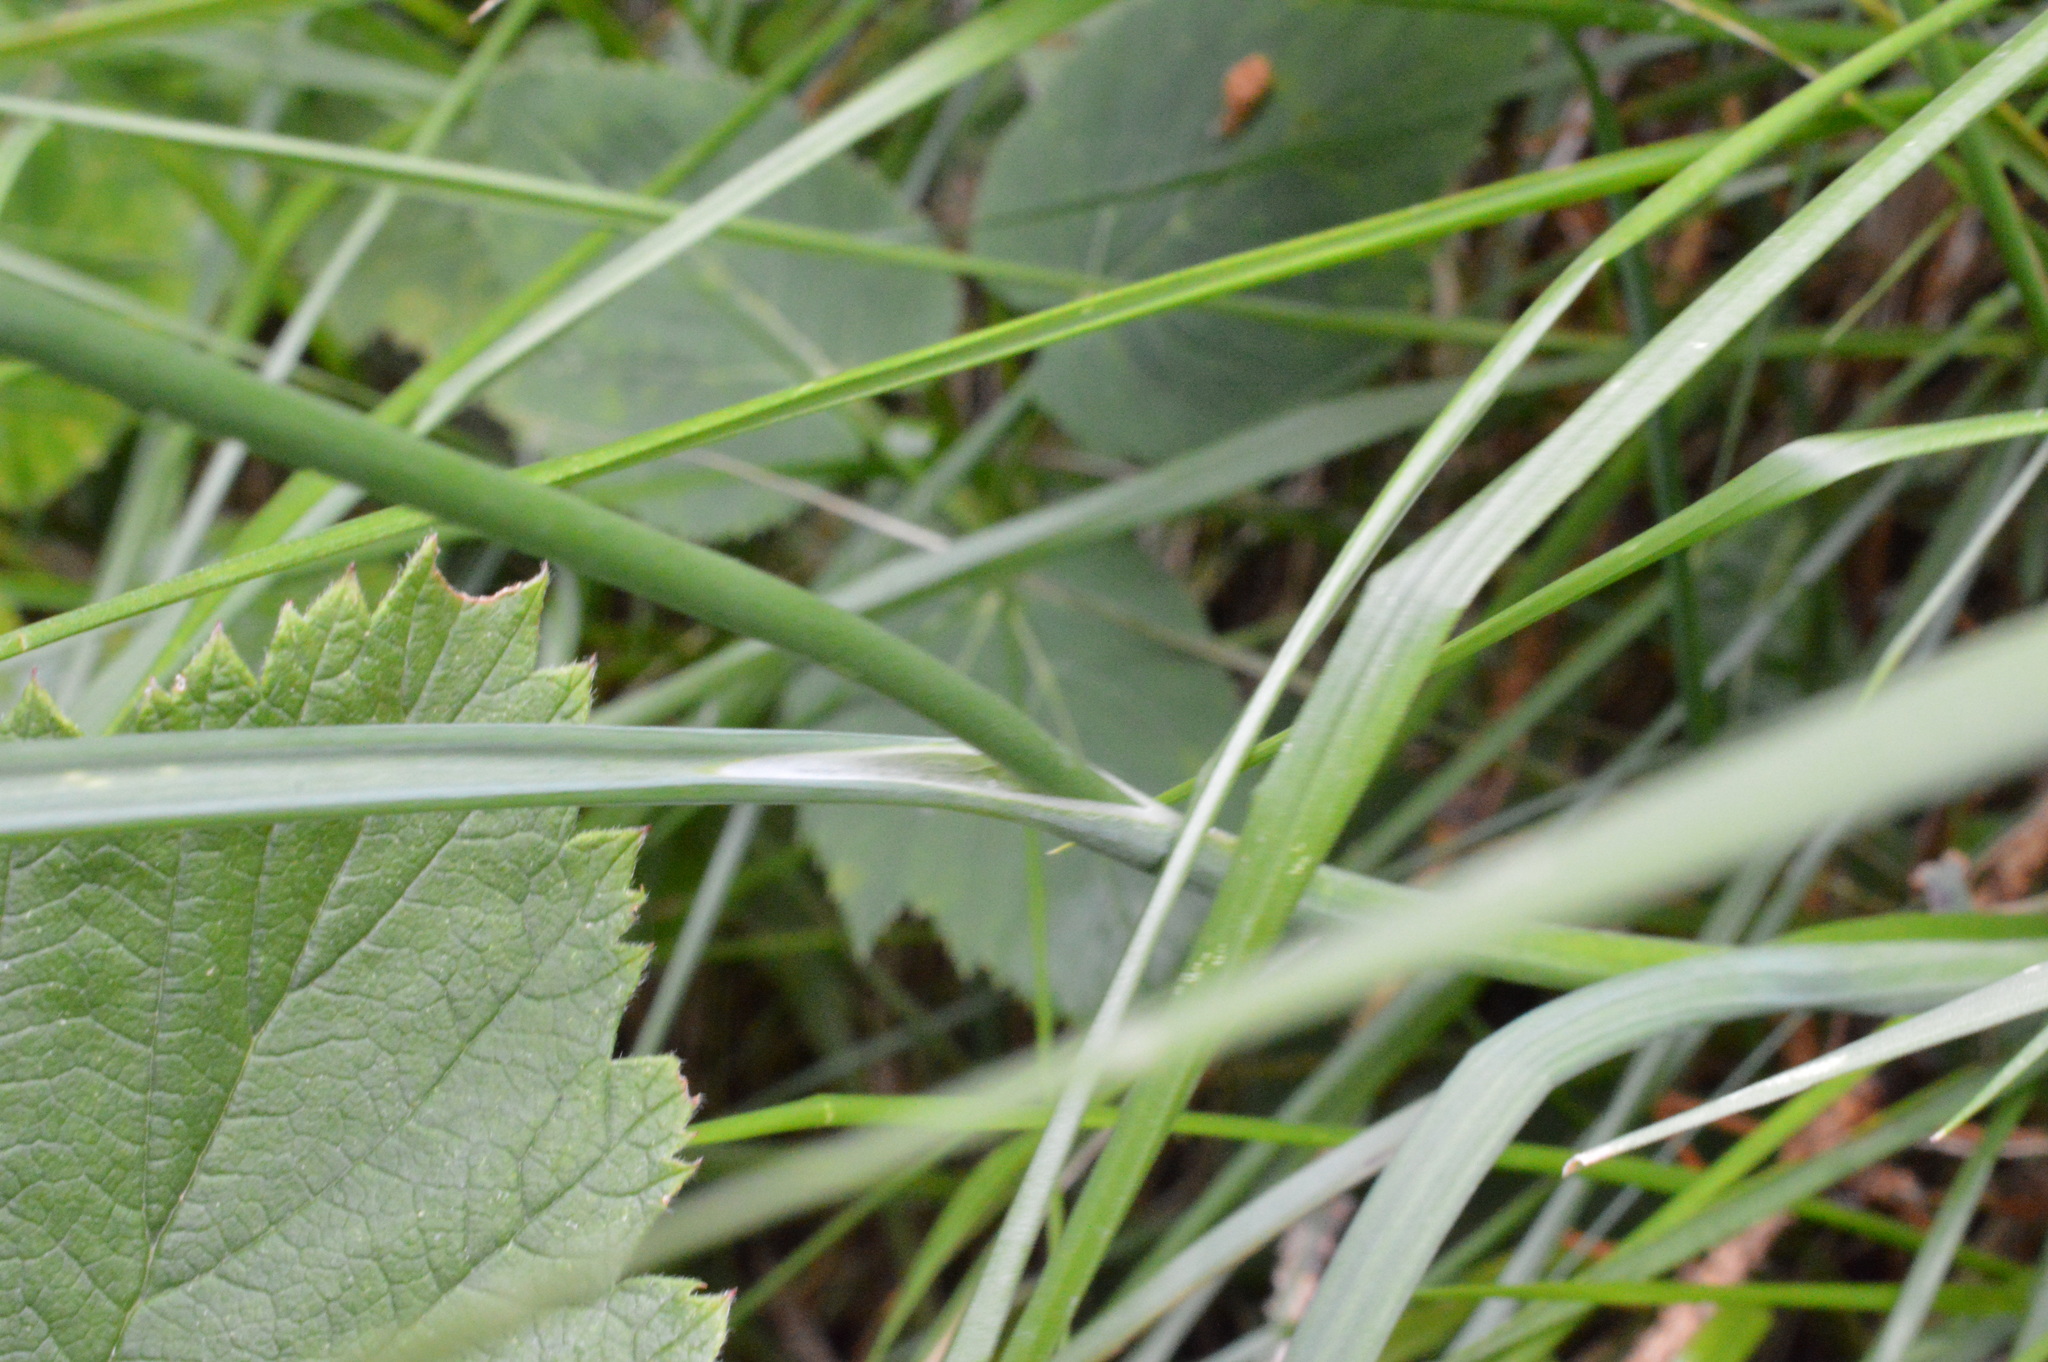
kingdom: Plantae
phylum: Tracheophyta
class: Liliopsida
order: Asparagales
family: Amaryllidaceae
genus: Allium
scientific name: Allium carinatum
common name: Keeled garlic
